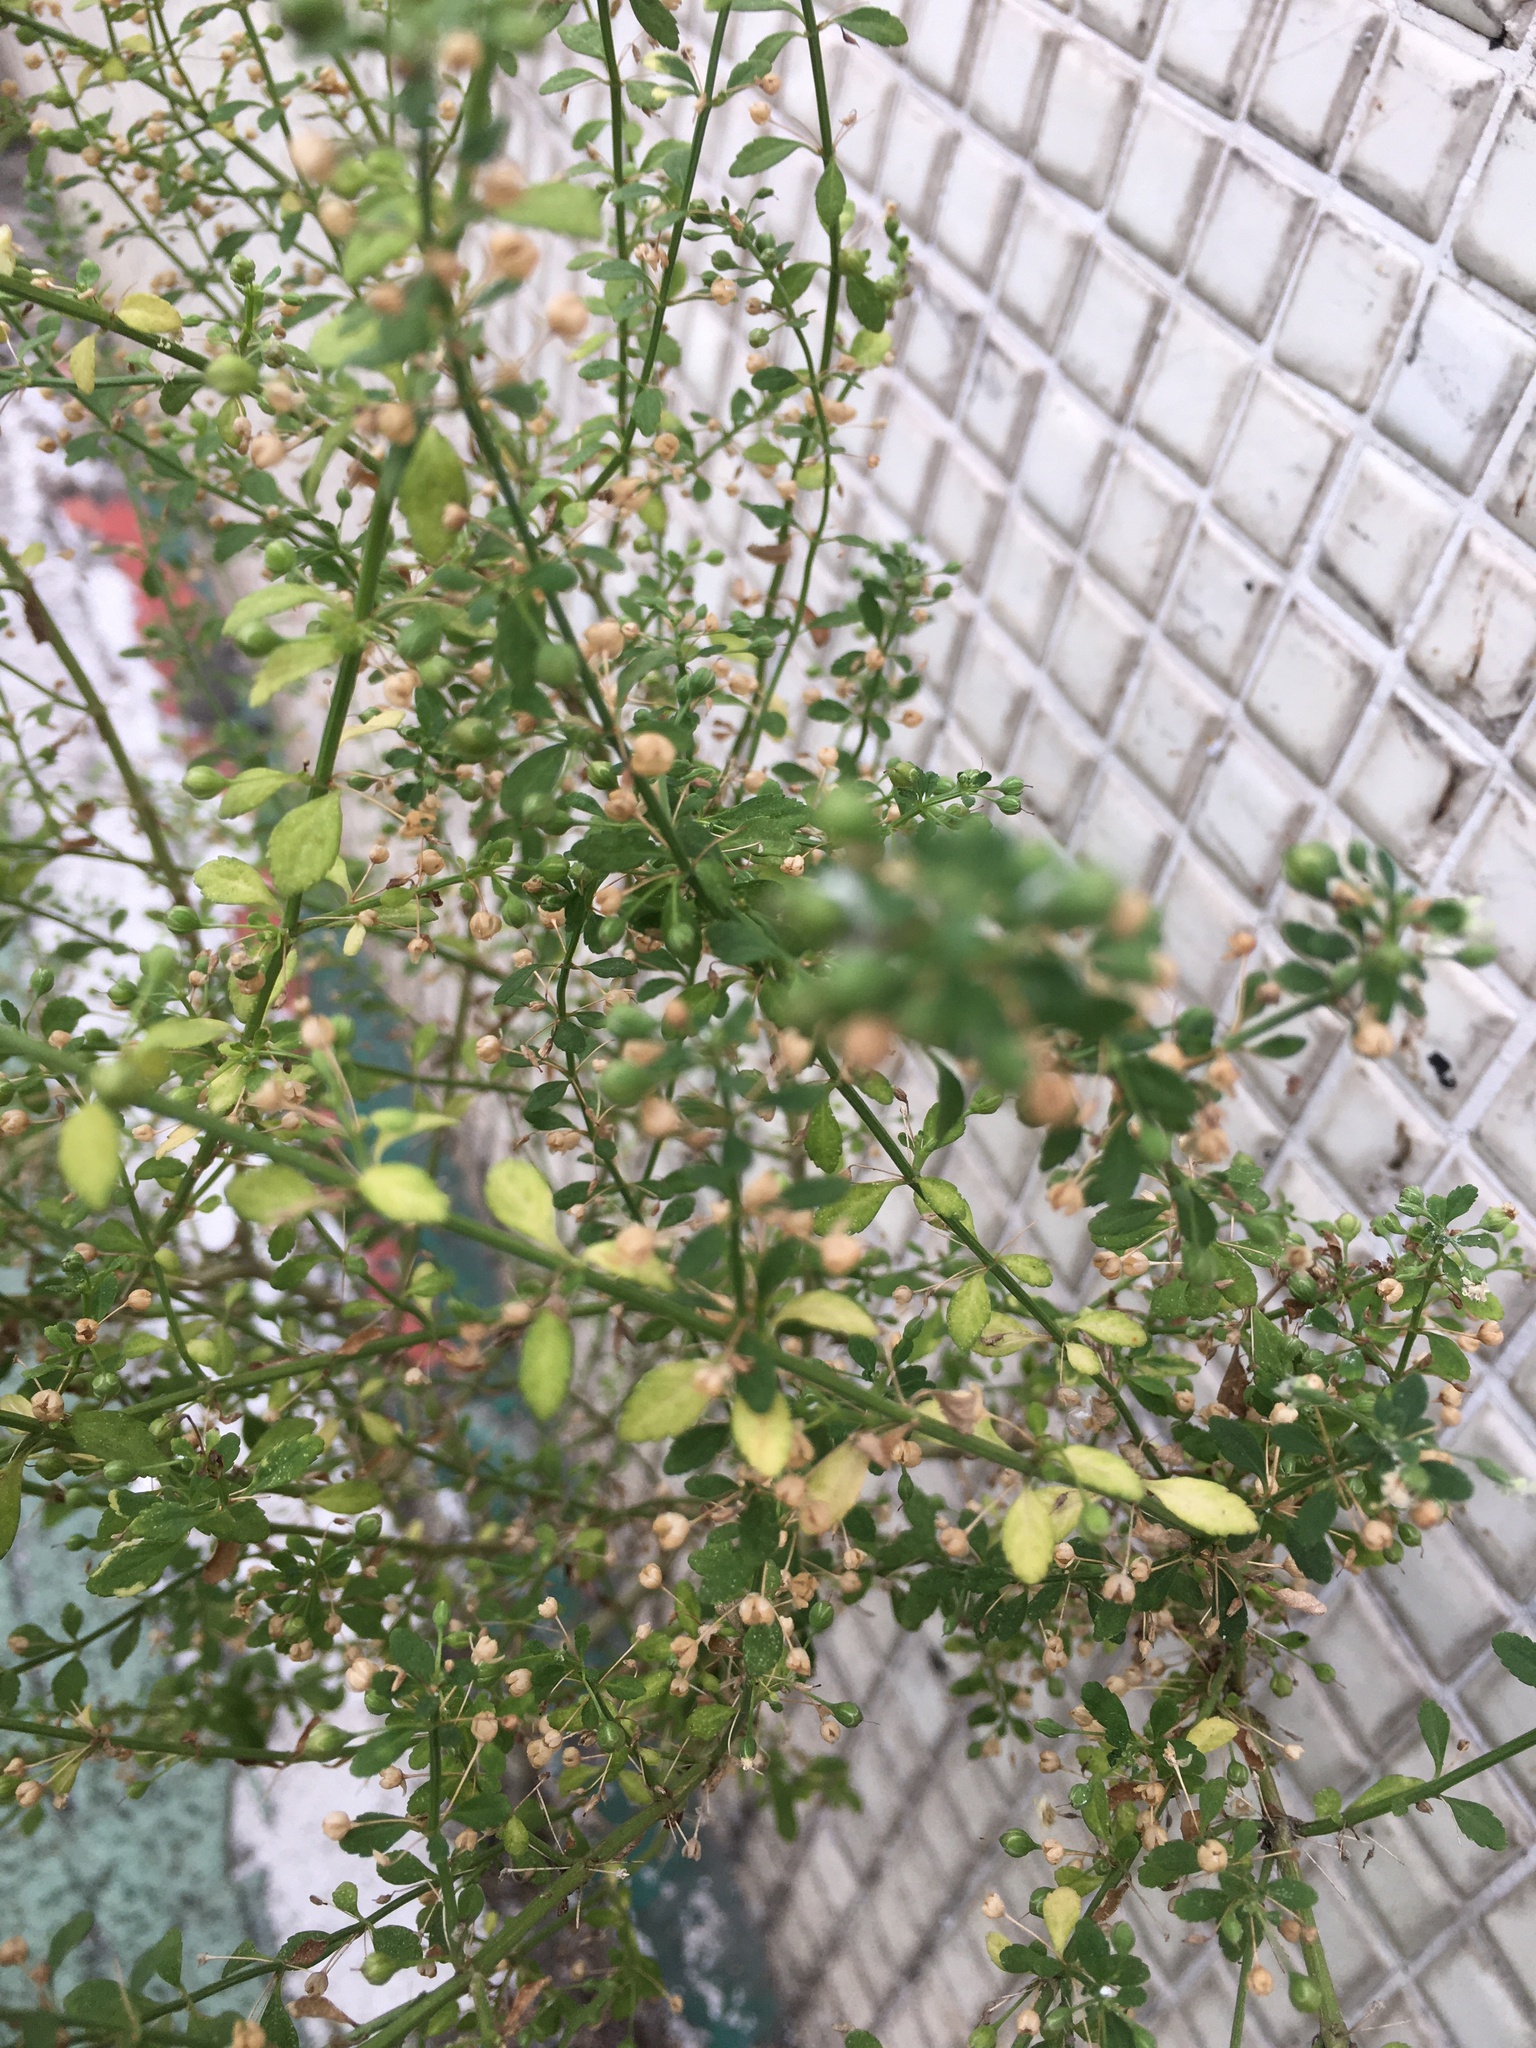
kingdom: Plantae
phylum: Tracheophyta
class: Magnoliopsida
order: Lamiales
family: Plantaginaceae
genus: Scoparia
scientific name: Scoparia dulcis
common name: Scoparia-weed
